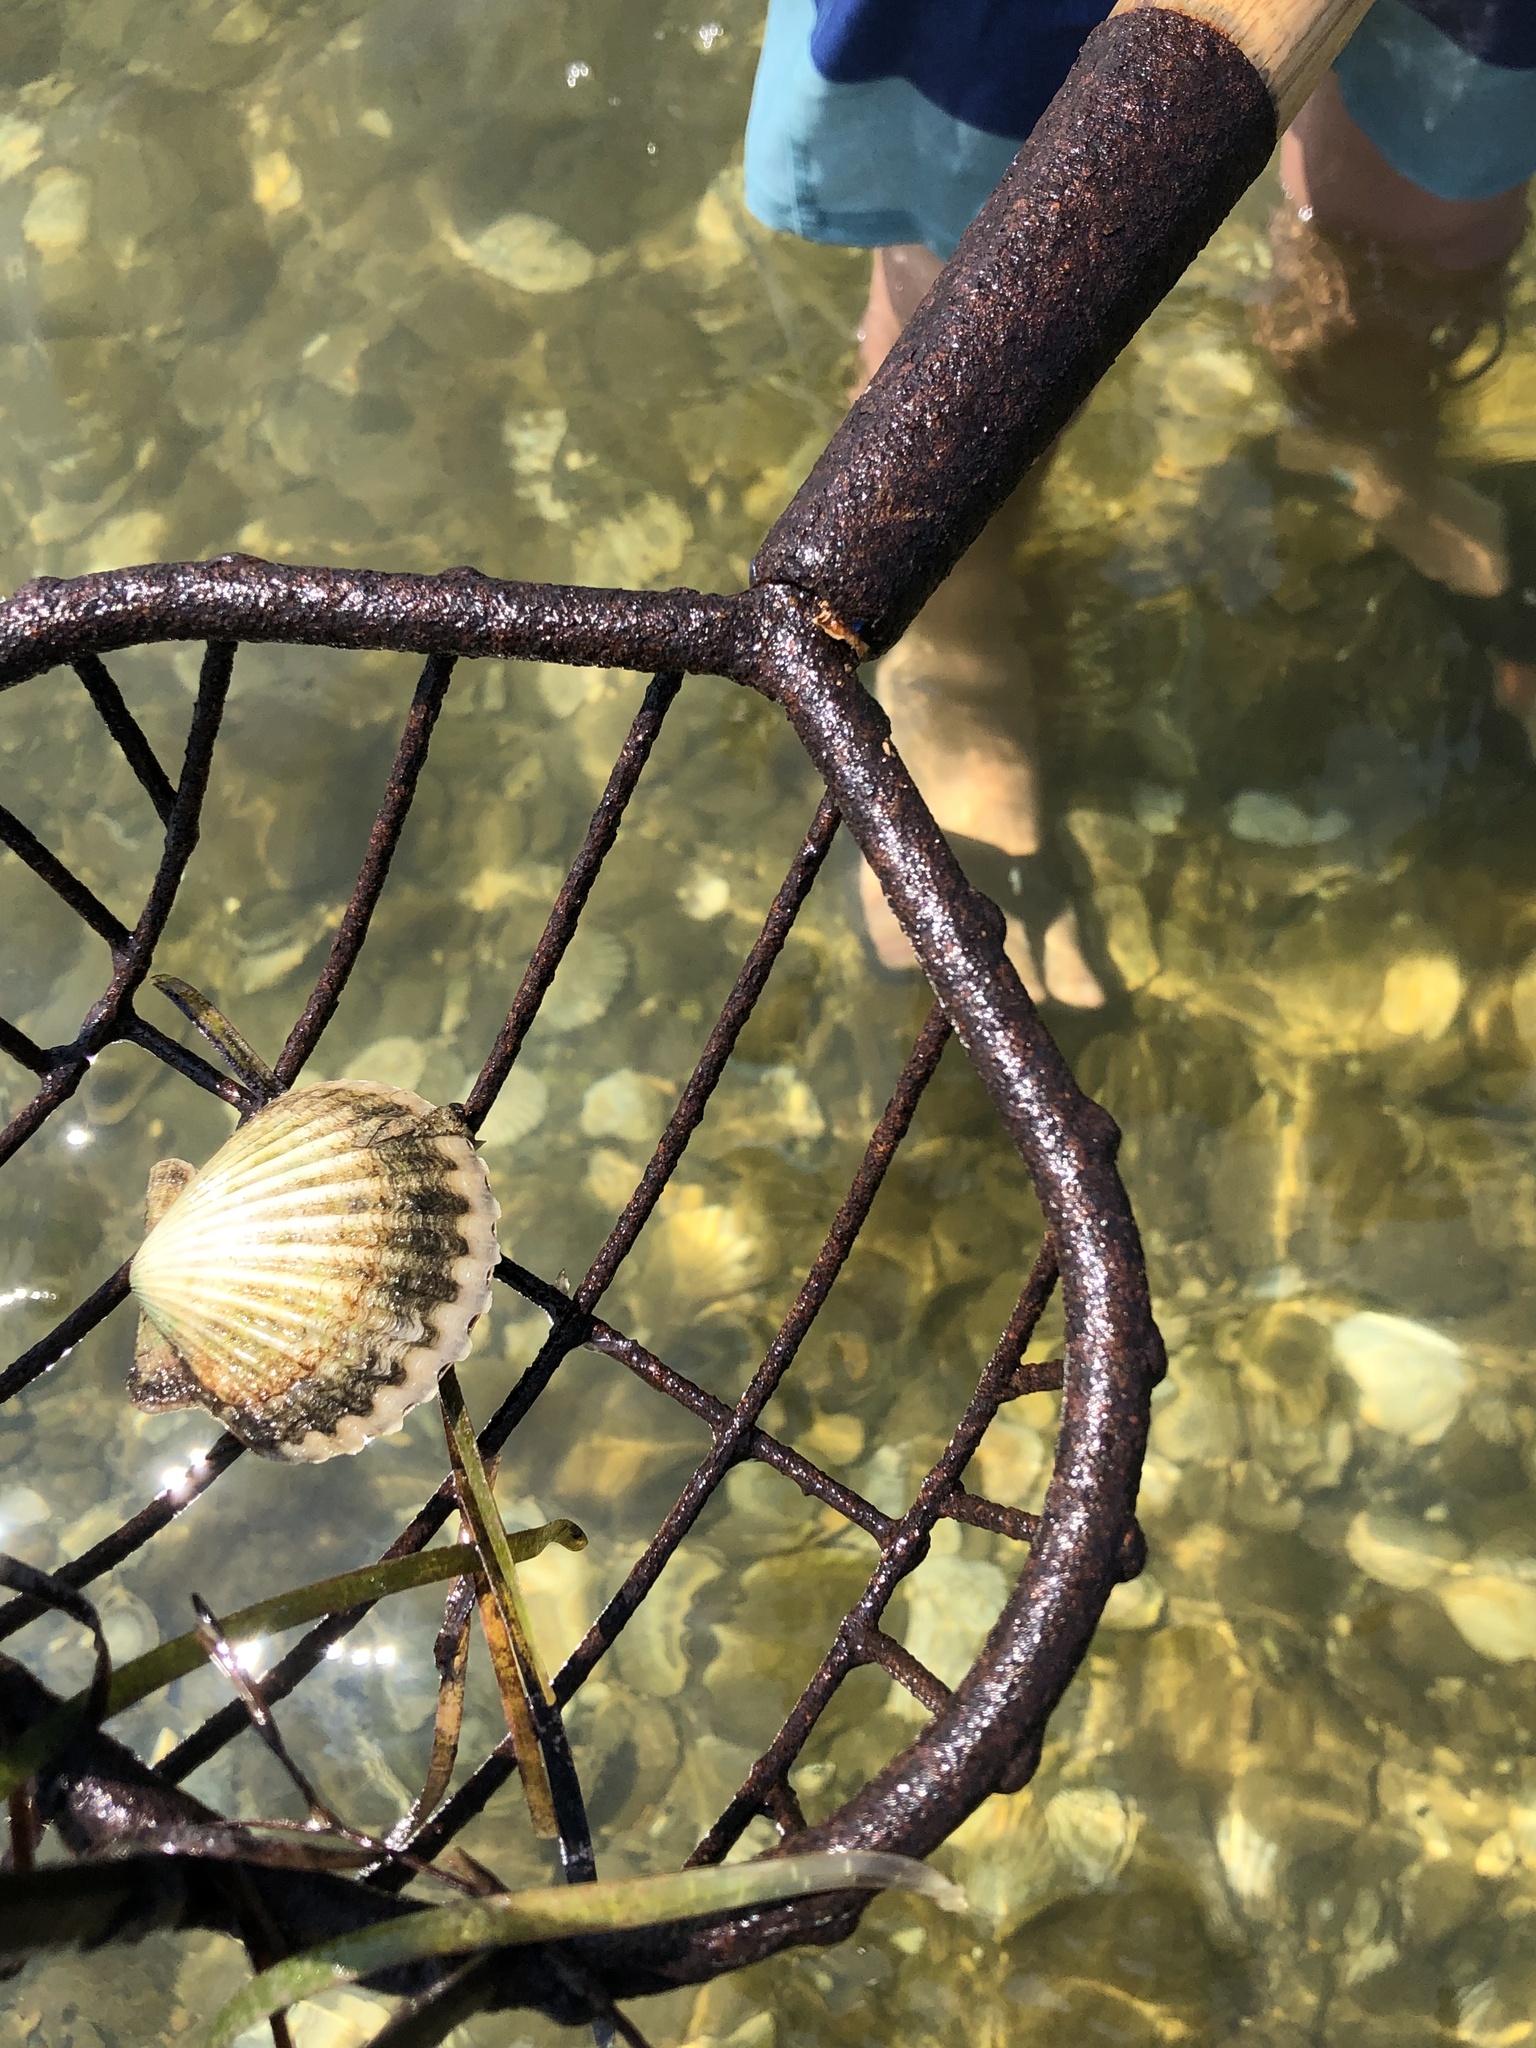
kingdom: Animalia
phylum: Mollusca
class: Bivalvia
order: Pectinida
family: Pectinidae
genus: Argopecten
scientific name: Argopecten irradians
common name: Atlantic bay scallop
